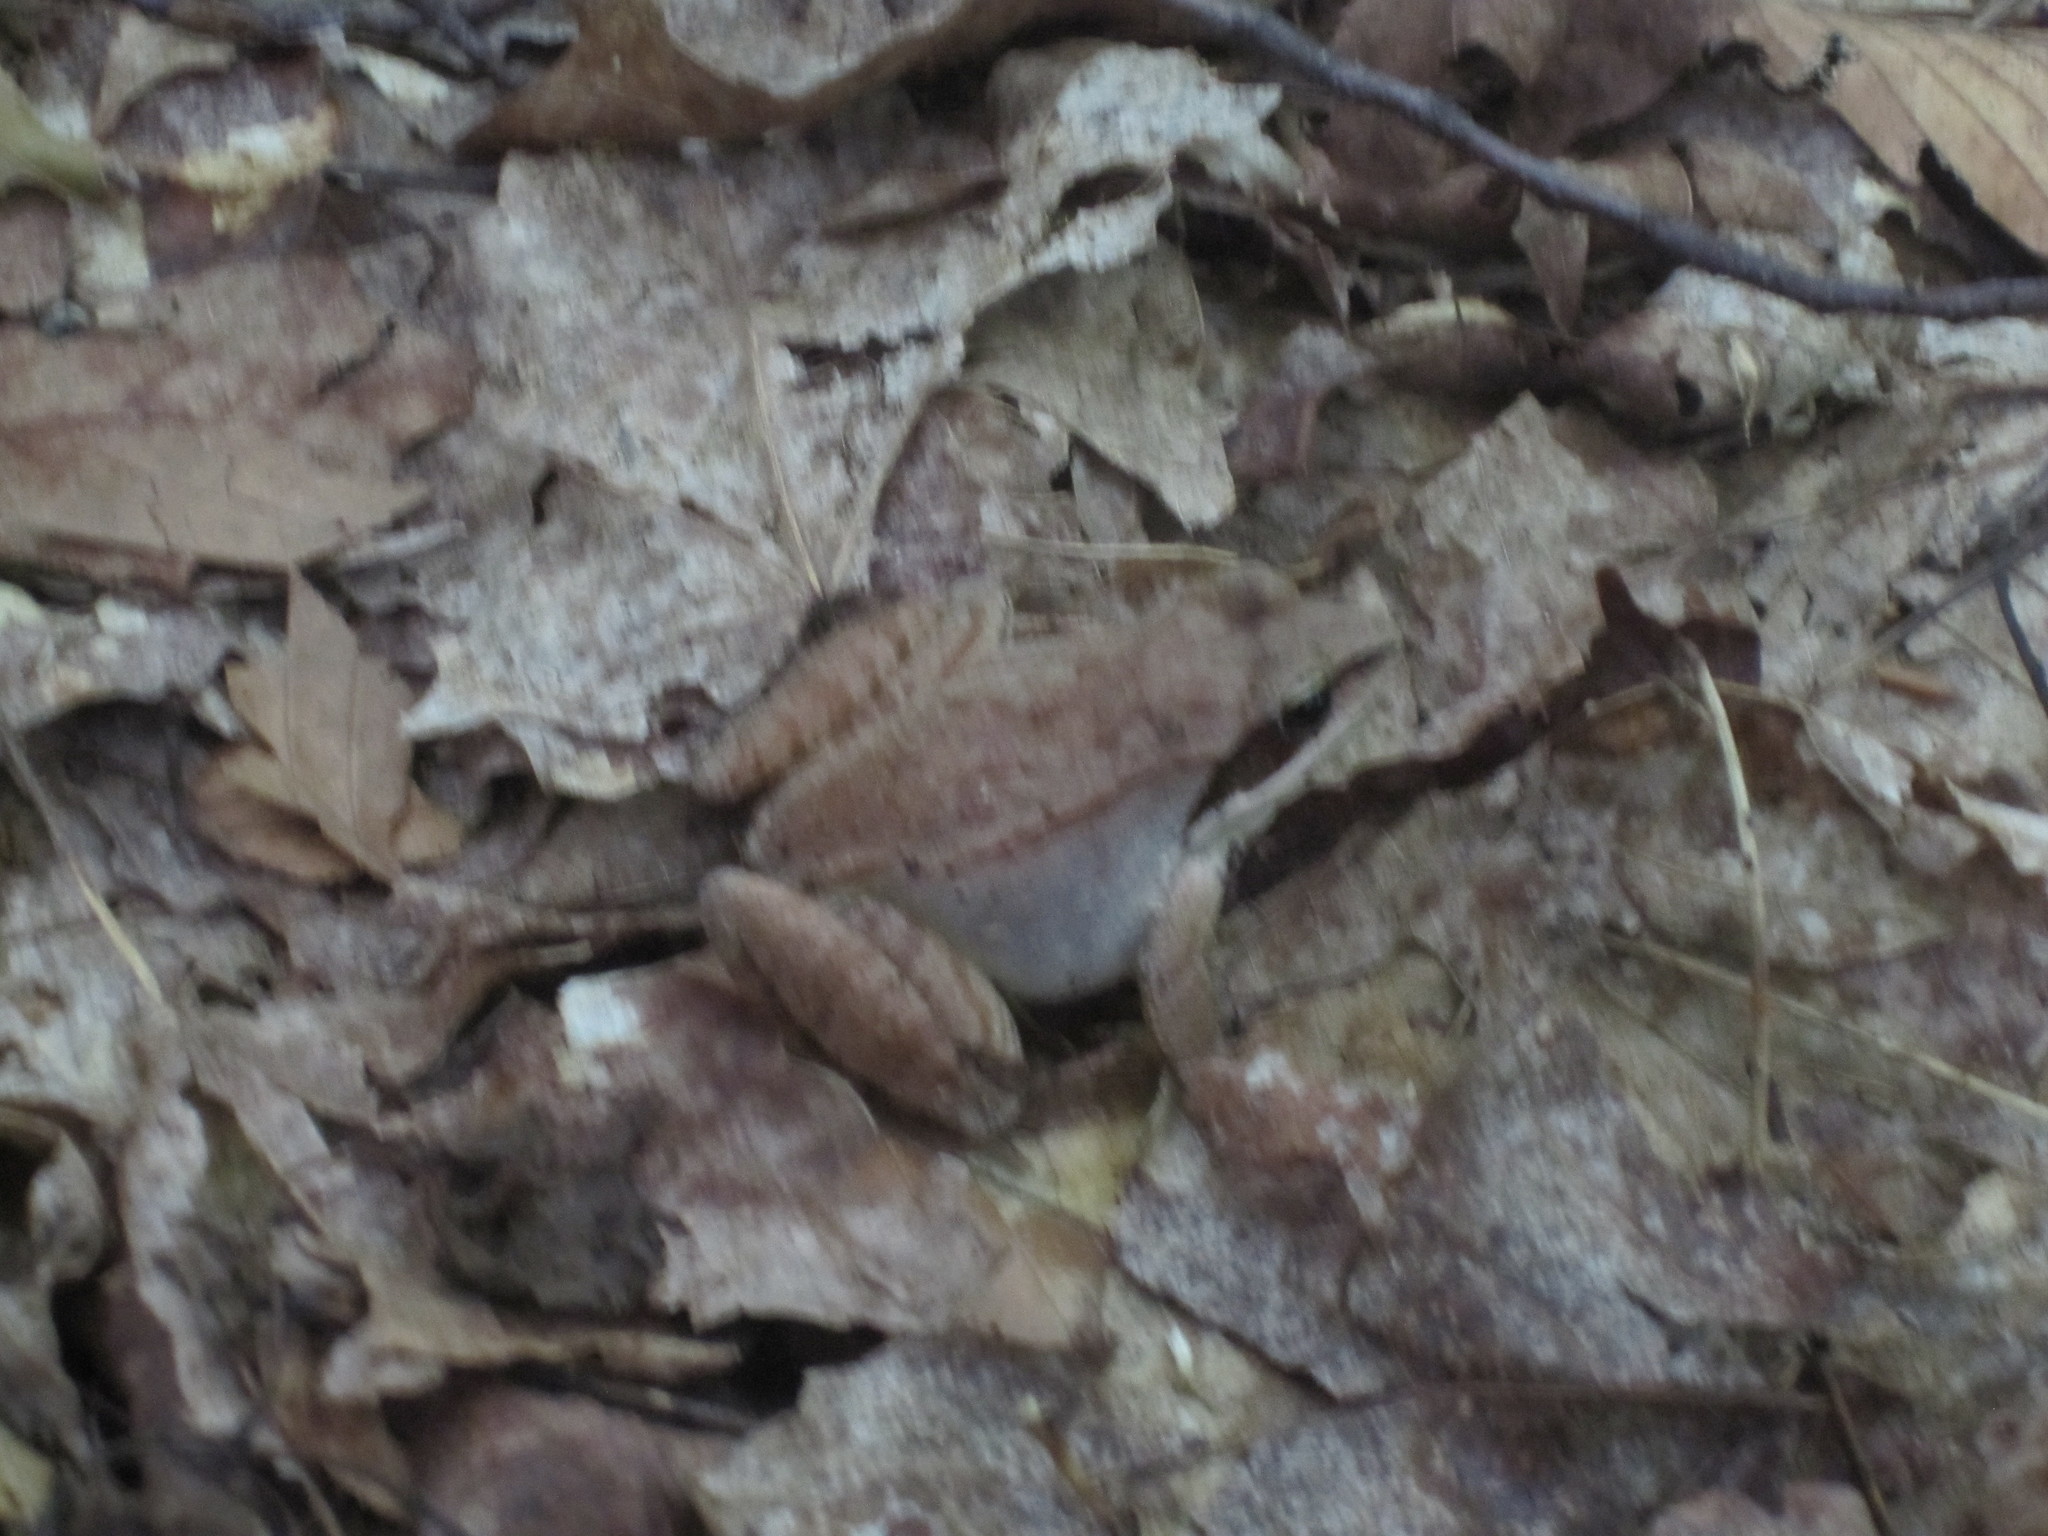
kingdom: Animalia
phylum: Chordata
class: Amphibia
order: Anura
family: Ranidae
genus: Lithobates
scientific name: Lithobates sylvaticus
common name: Wood frog
